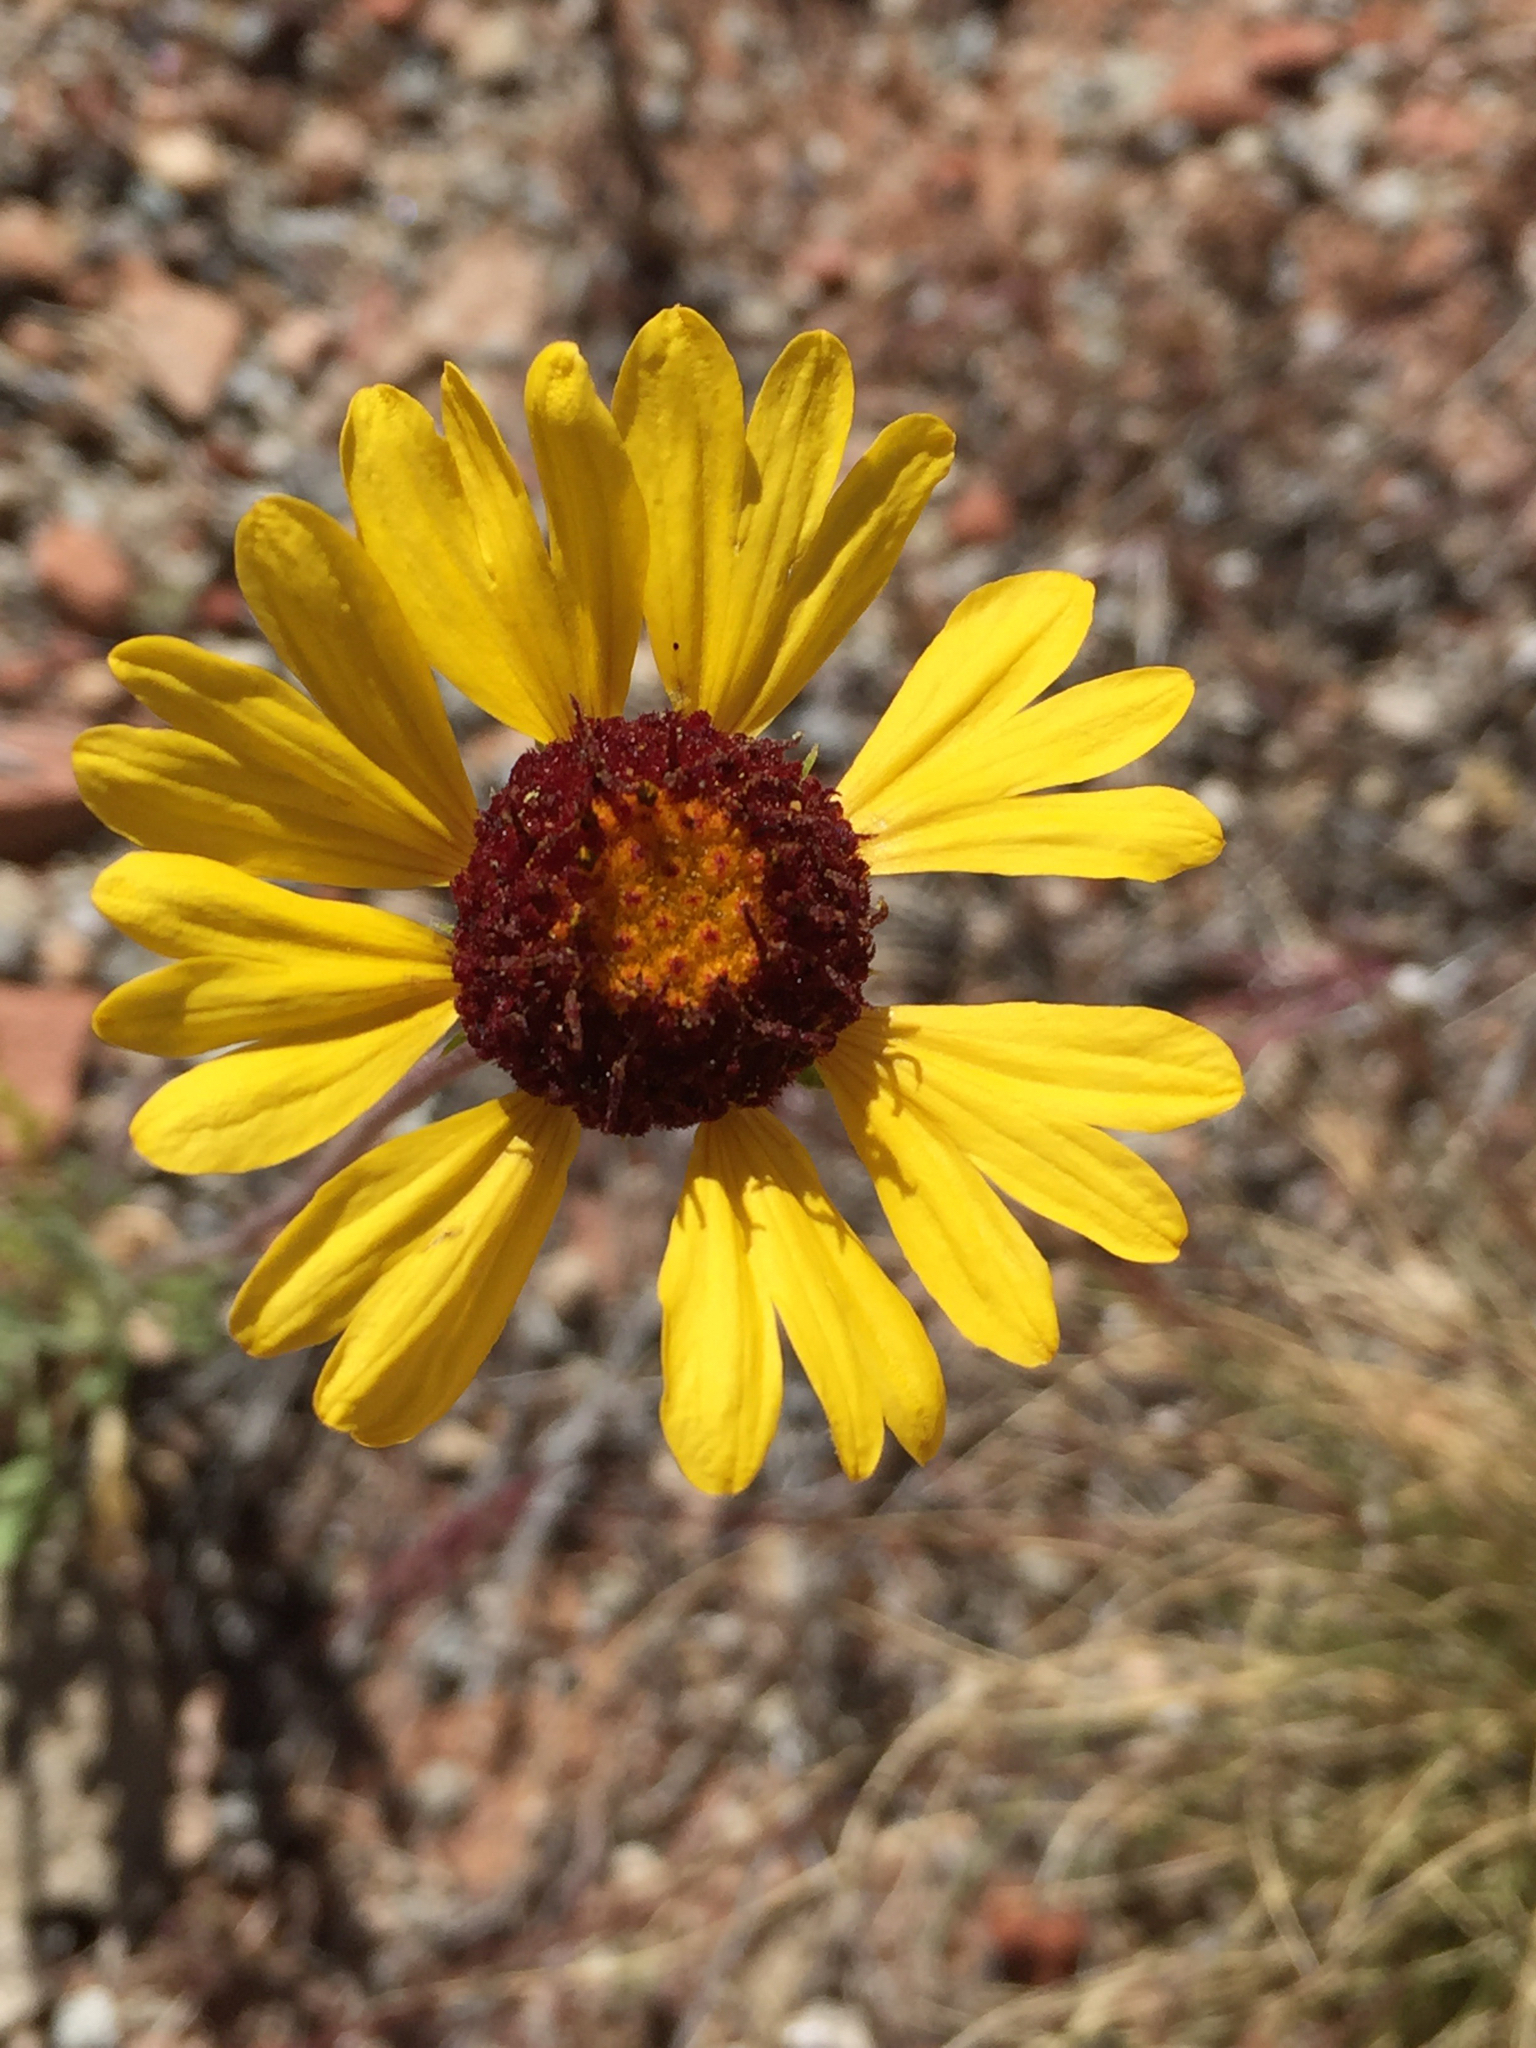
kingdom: Plantae
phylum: Tracheophyta
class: Magnoliopsida
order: Asterales
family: Asteraceae
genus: Gaillardia
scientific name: Gaillardia pinnatifida
